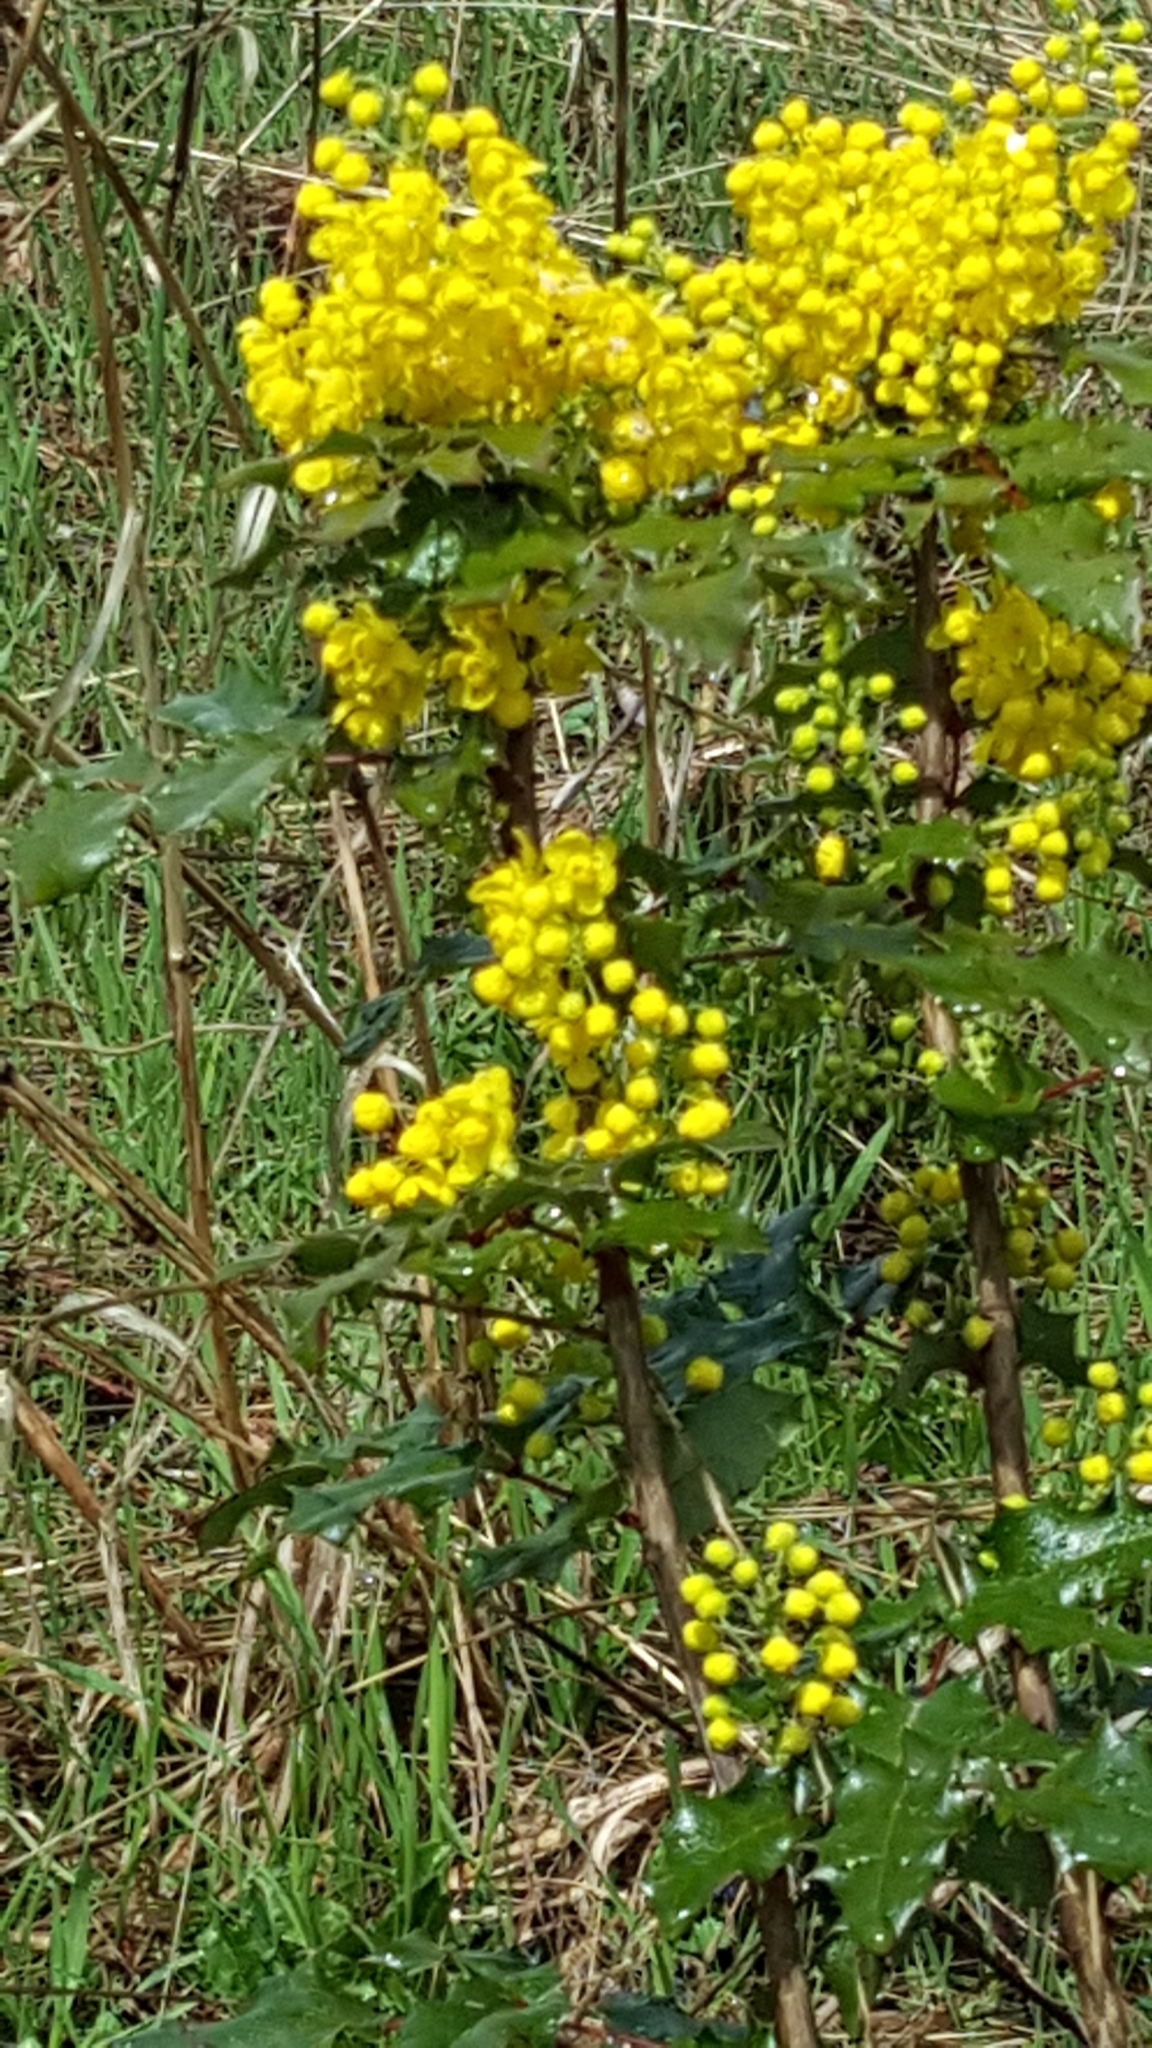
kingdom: Plantae
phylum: Tracheophyta
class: Magnoliopsida
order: Ranunculales
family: Berberidaceae
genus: Mahonia
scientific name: Mahonia aquifolium
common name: Oregon-grape
